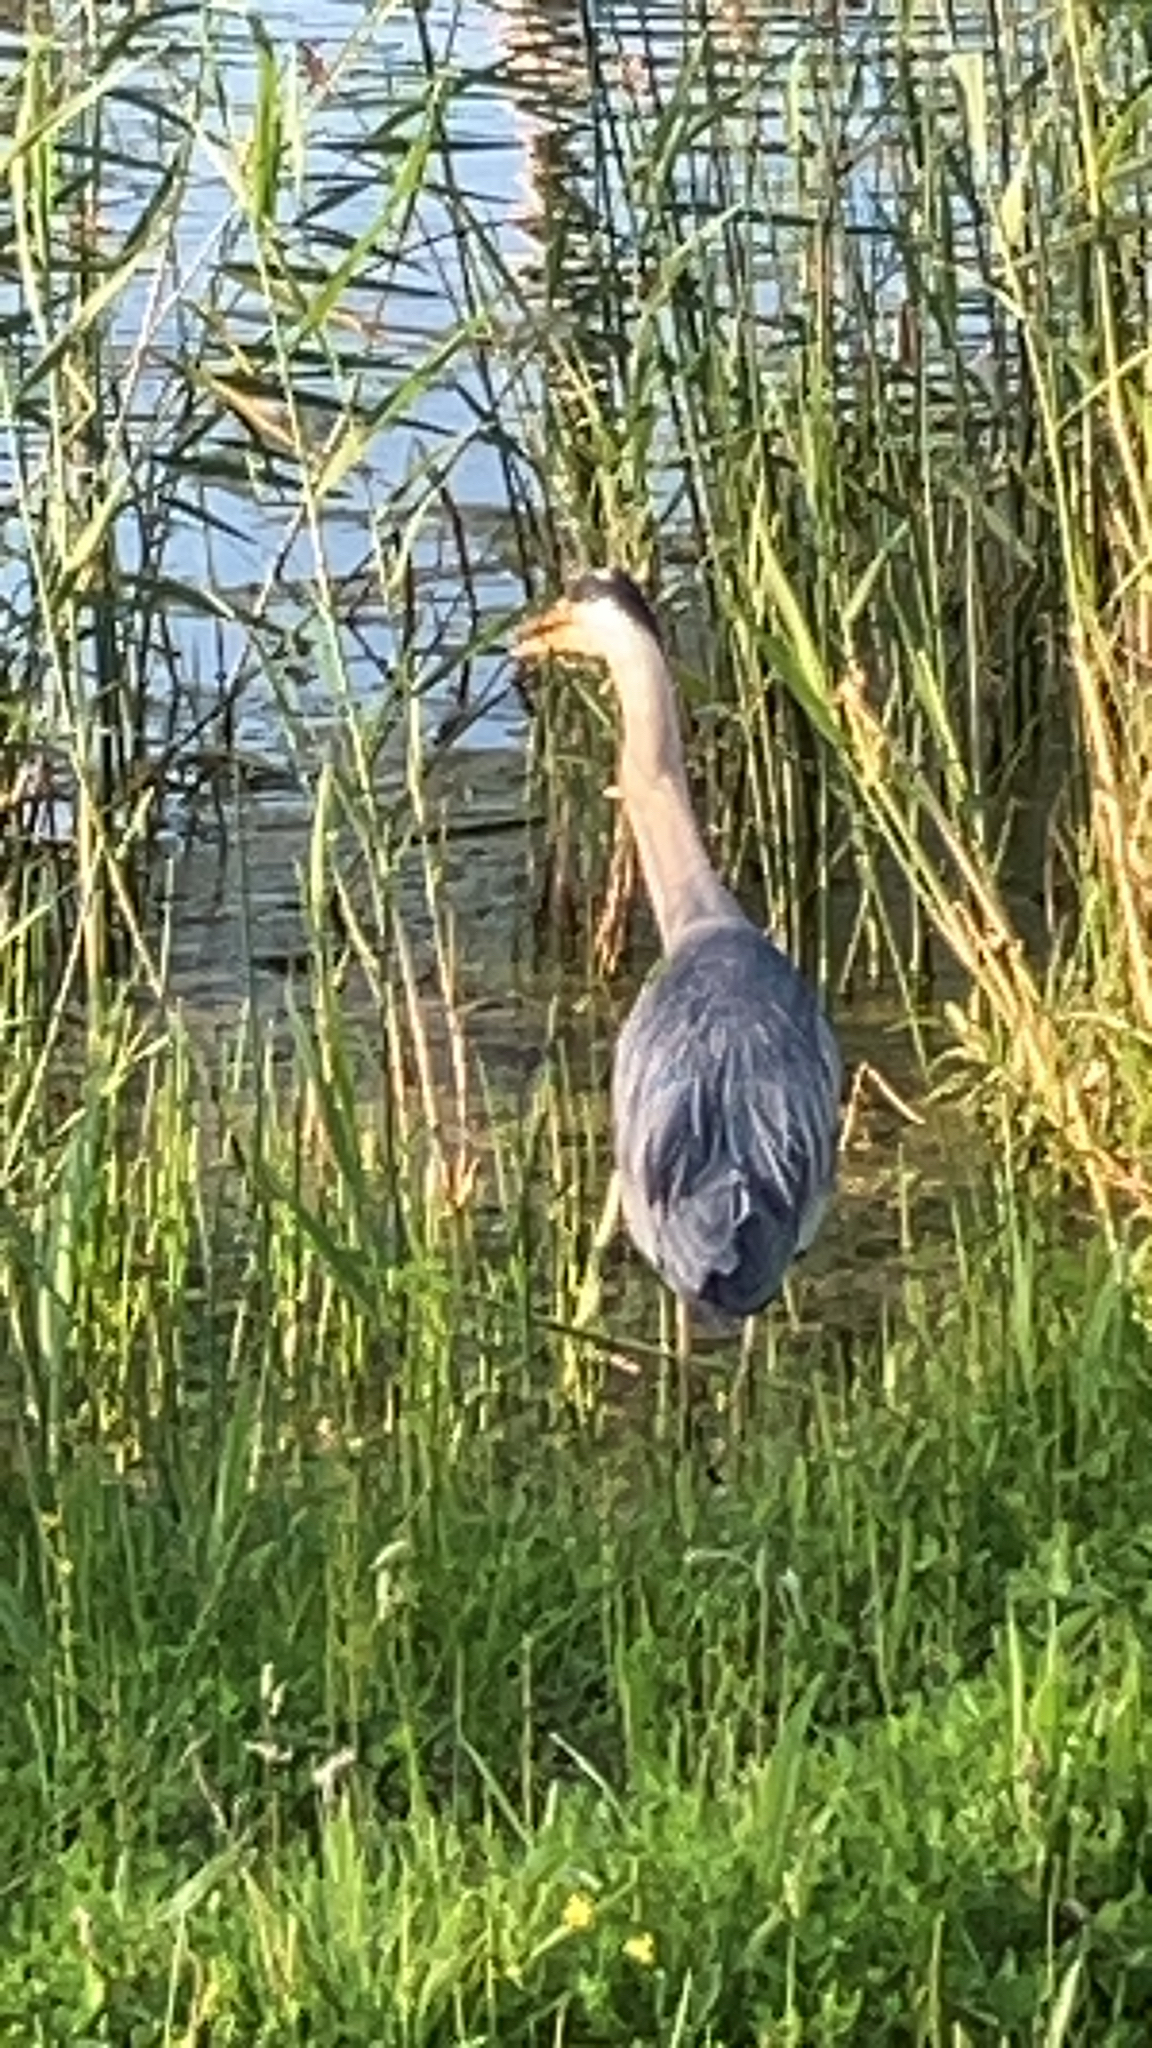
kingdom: Animalia
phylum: Chordata
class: Aves
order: Pelecaniformes
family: Ardeidae
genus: Ardea
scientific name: Ardea cinerea
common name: Grey heron
